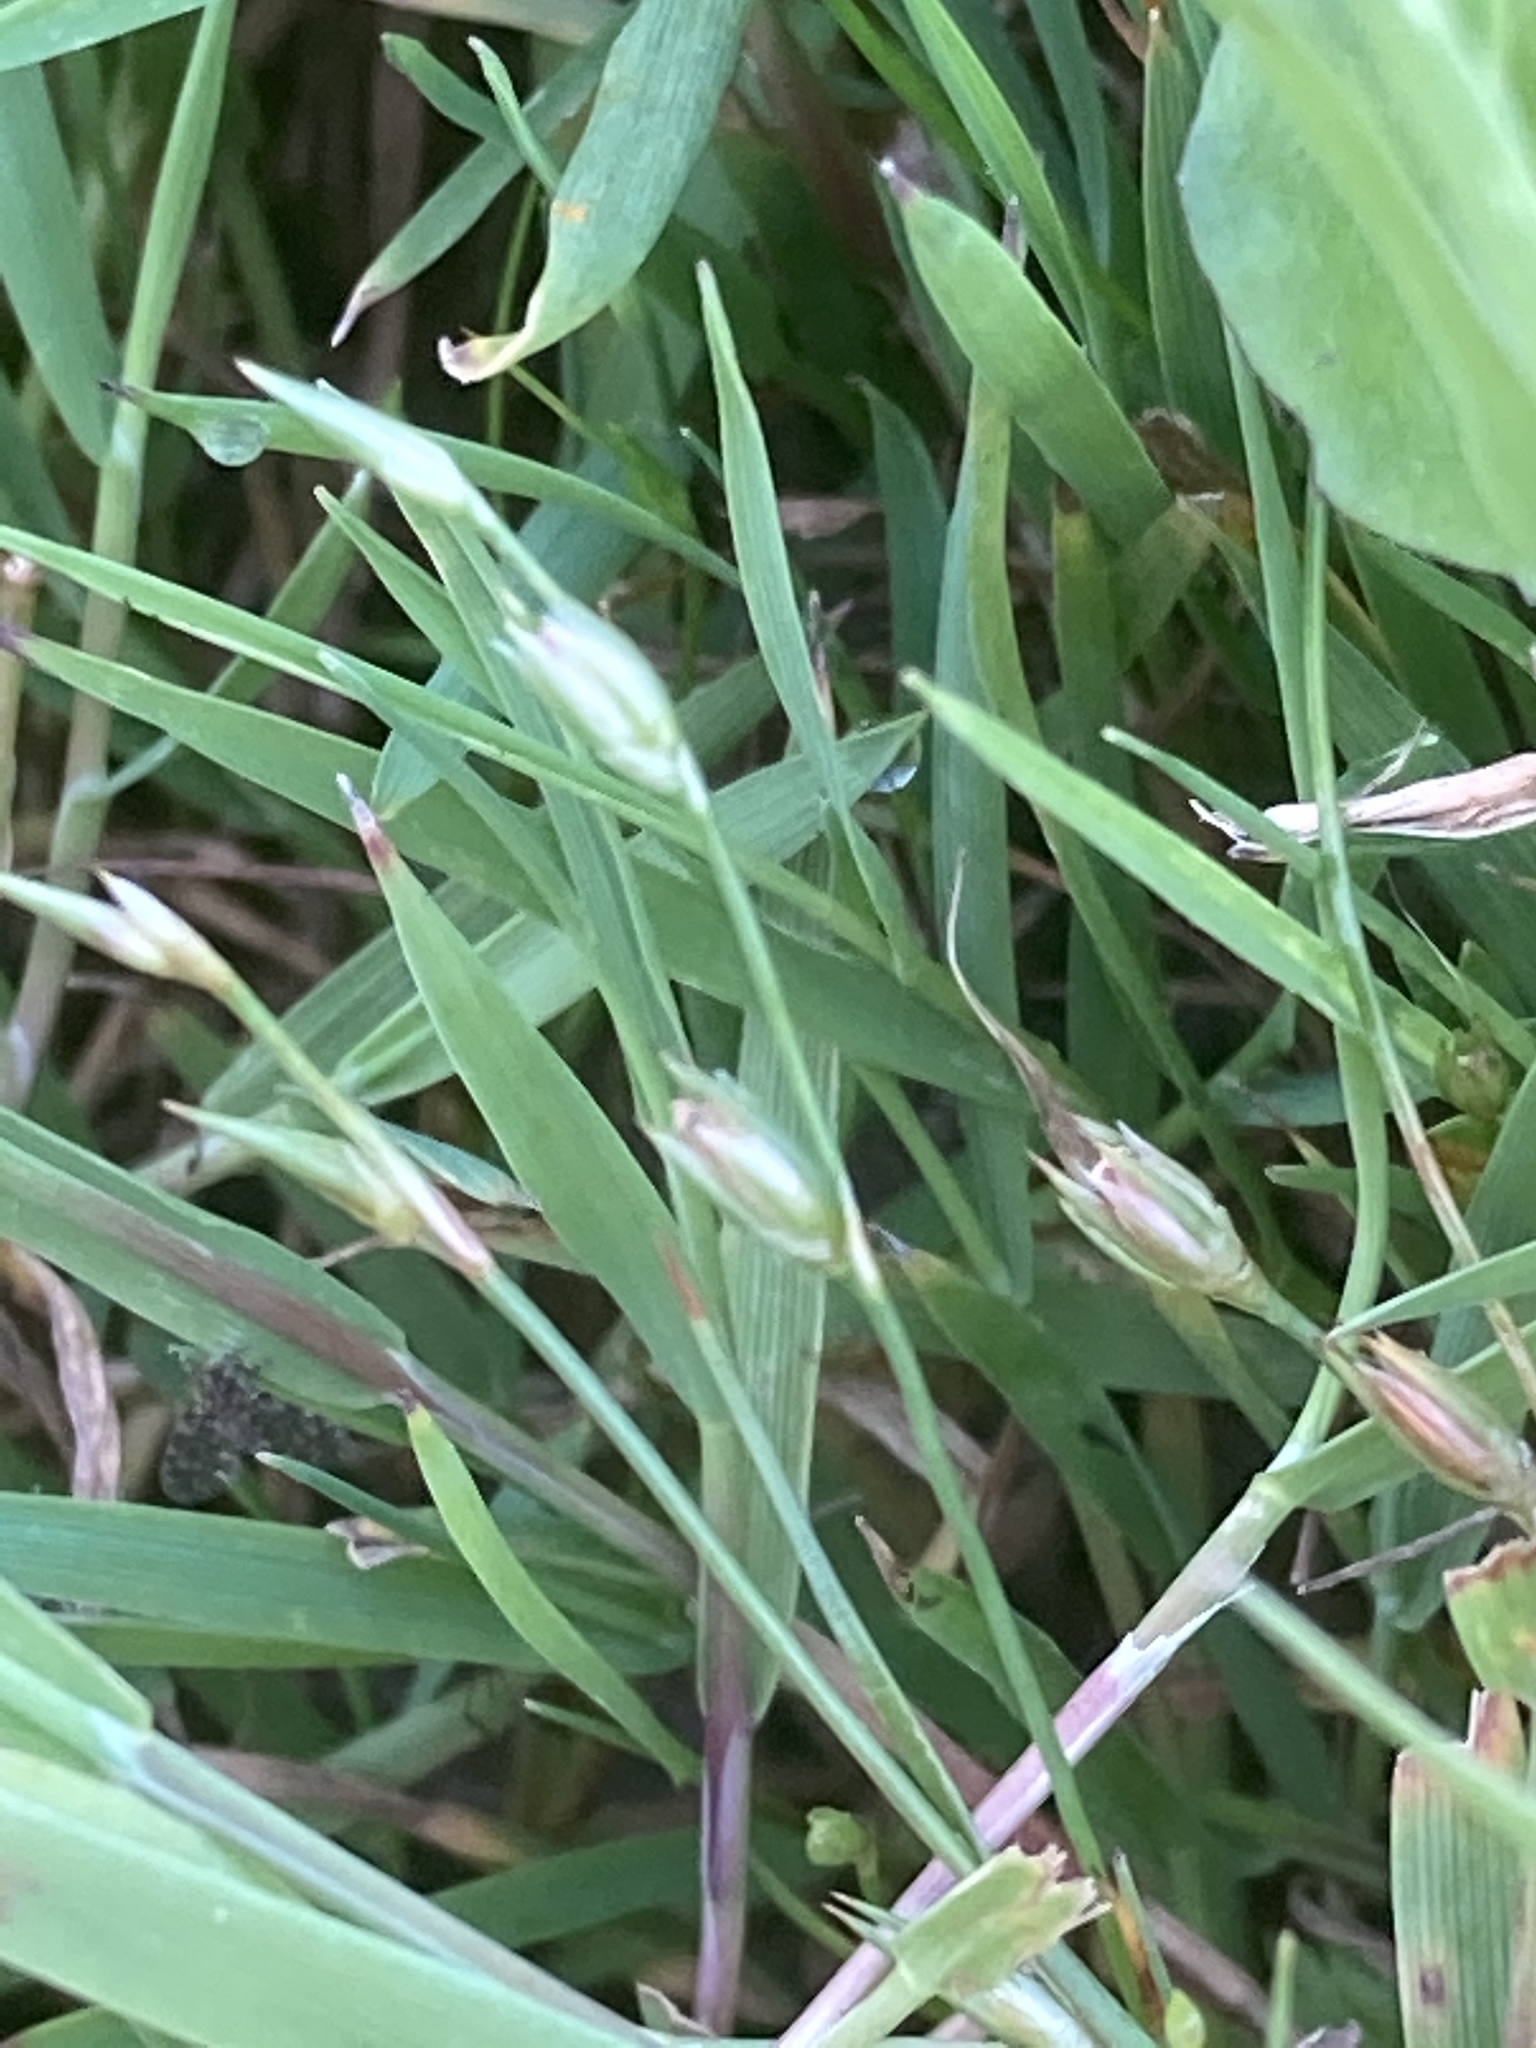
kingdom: Plantae
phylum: Tracheophyta
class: Liliopsida
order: Poales
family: Juncaceae
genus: Juncus
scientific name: Juncus bufonius
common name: Toad rush
